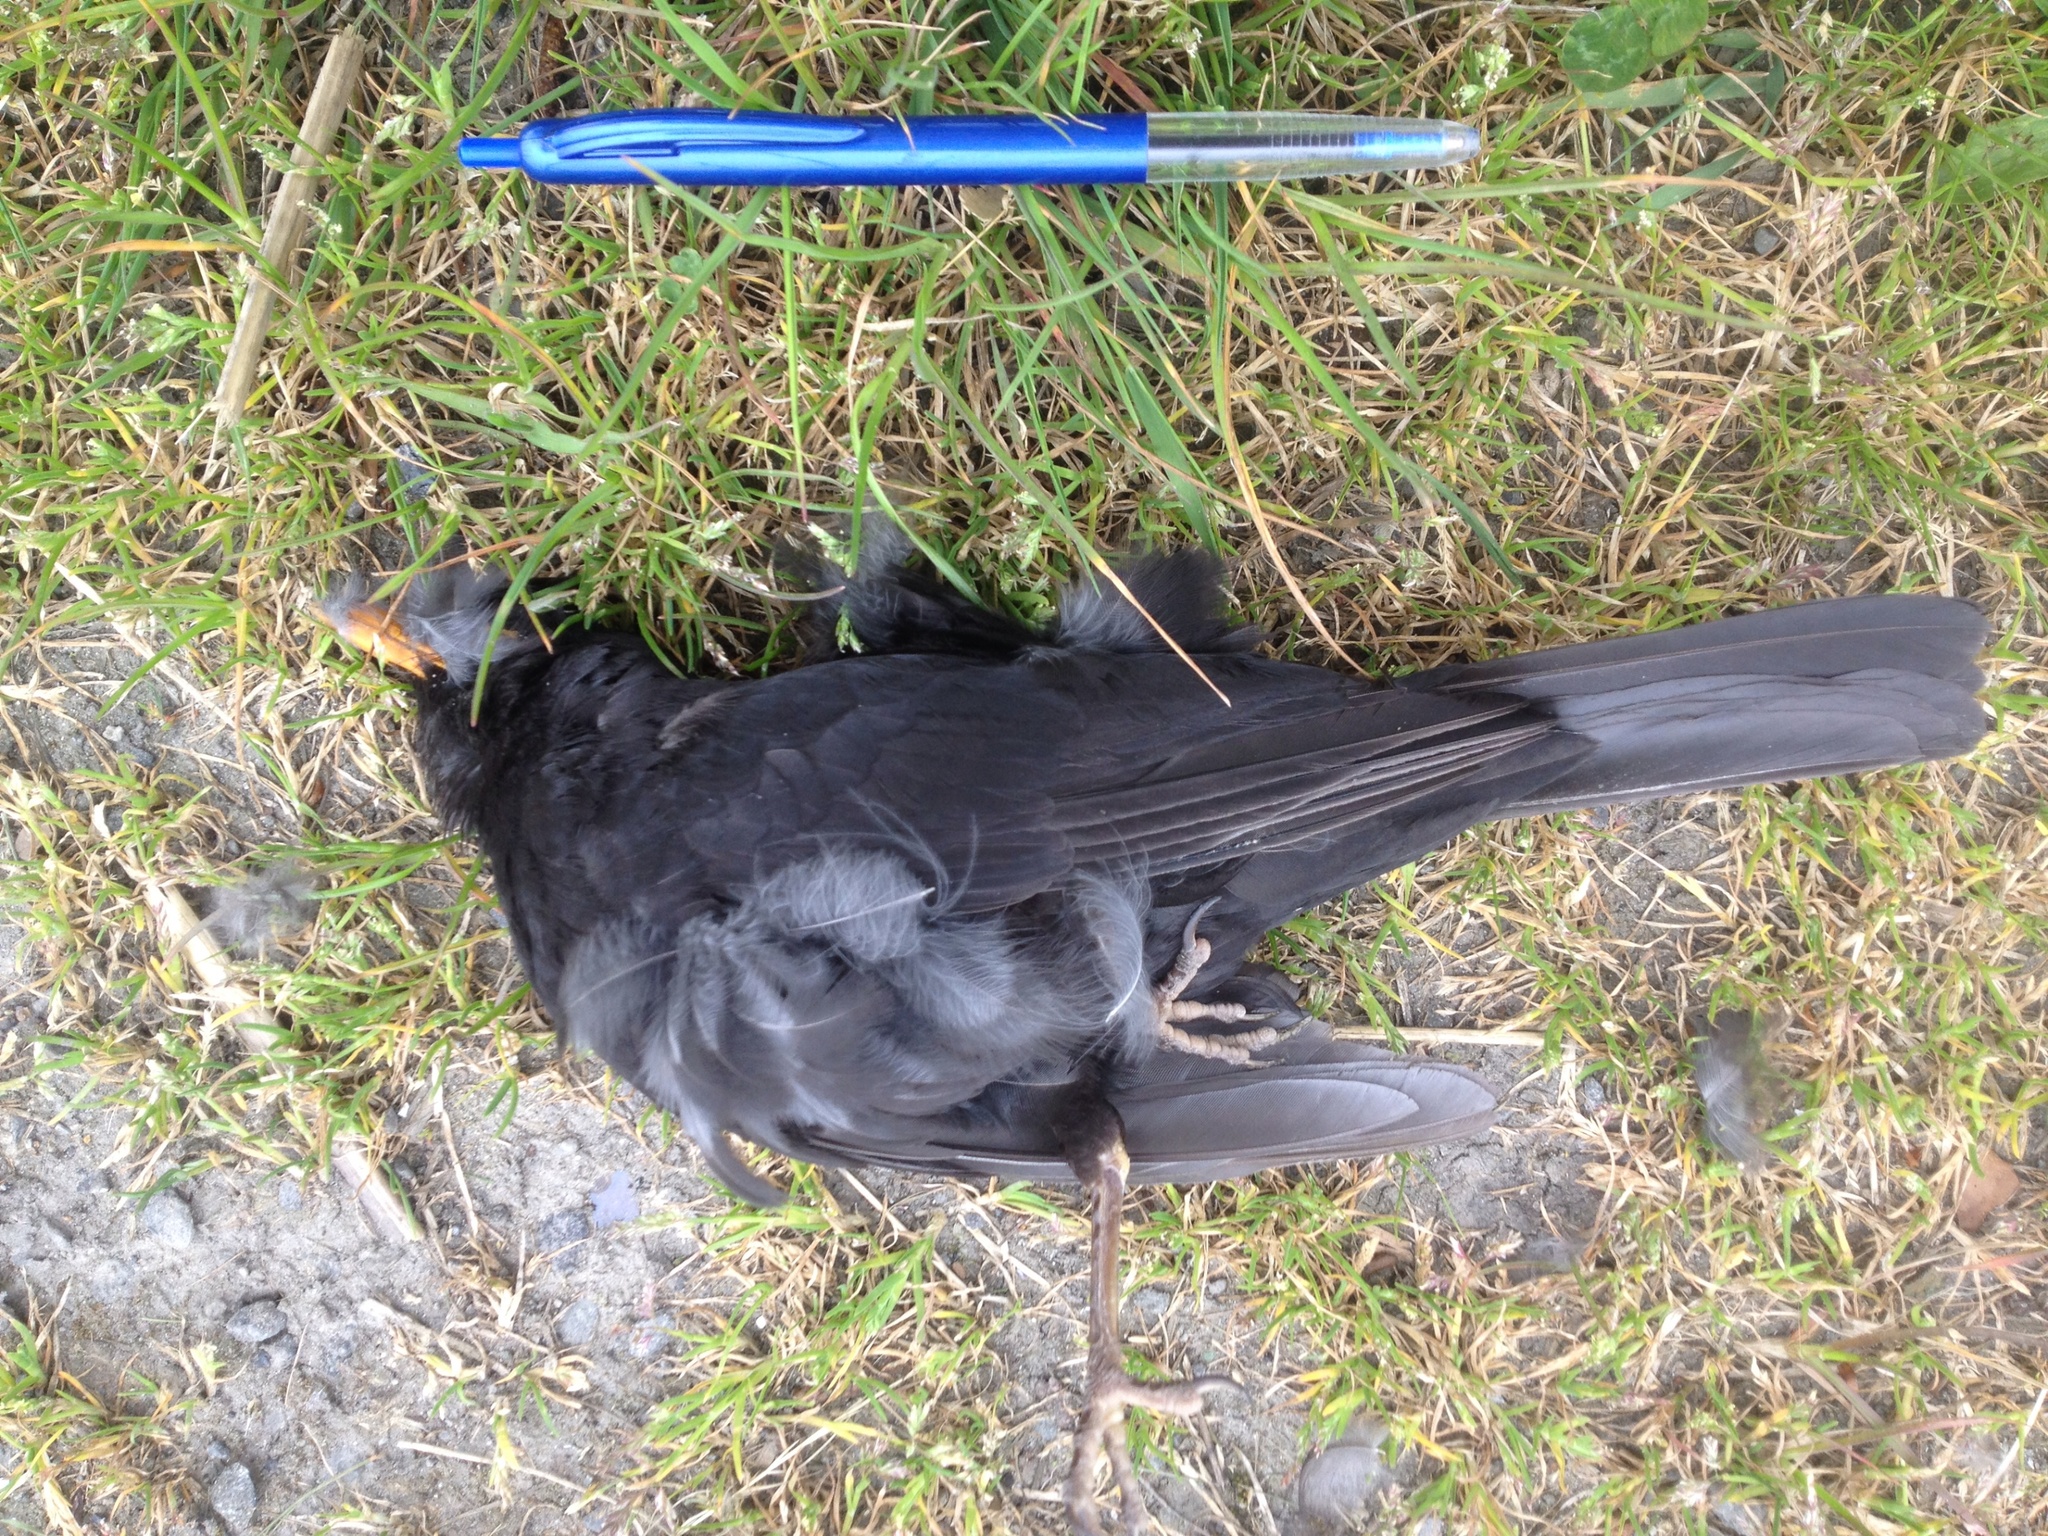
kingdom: Animalia
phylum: Chordata
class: Aves
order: Passeriformes
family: Turdidae
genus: Turdus
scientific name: Turdus merula
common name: Common blackbird
